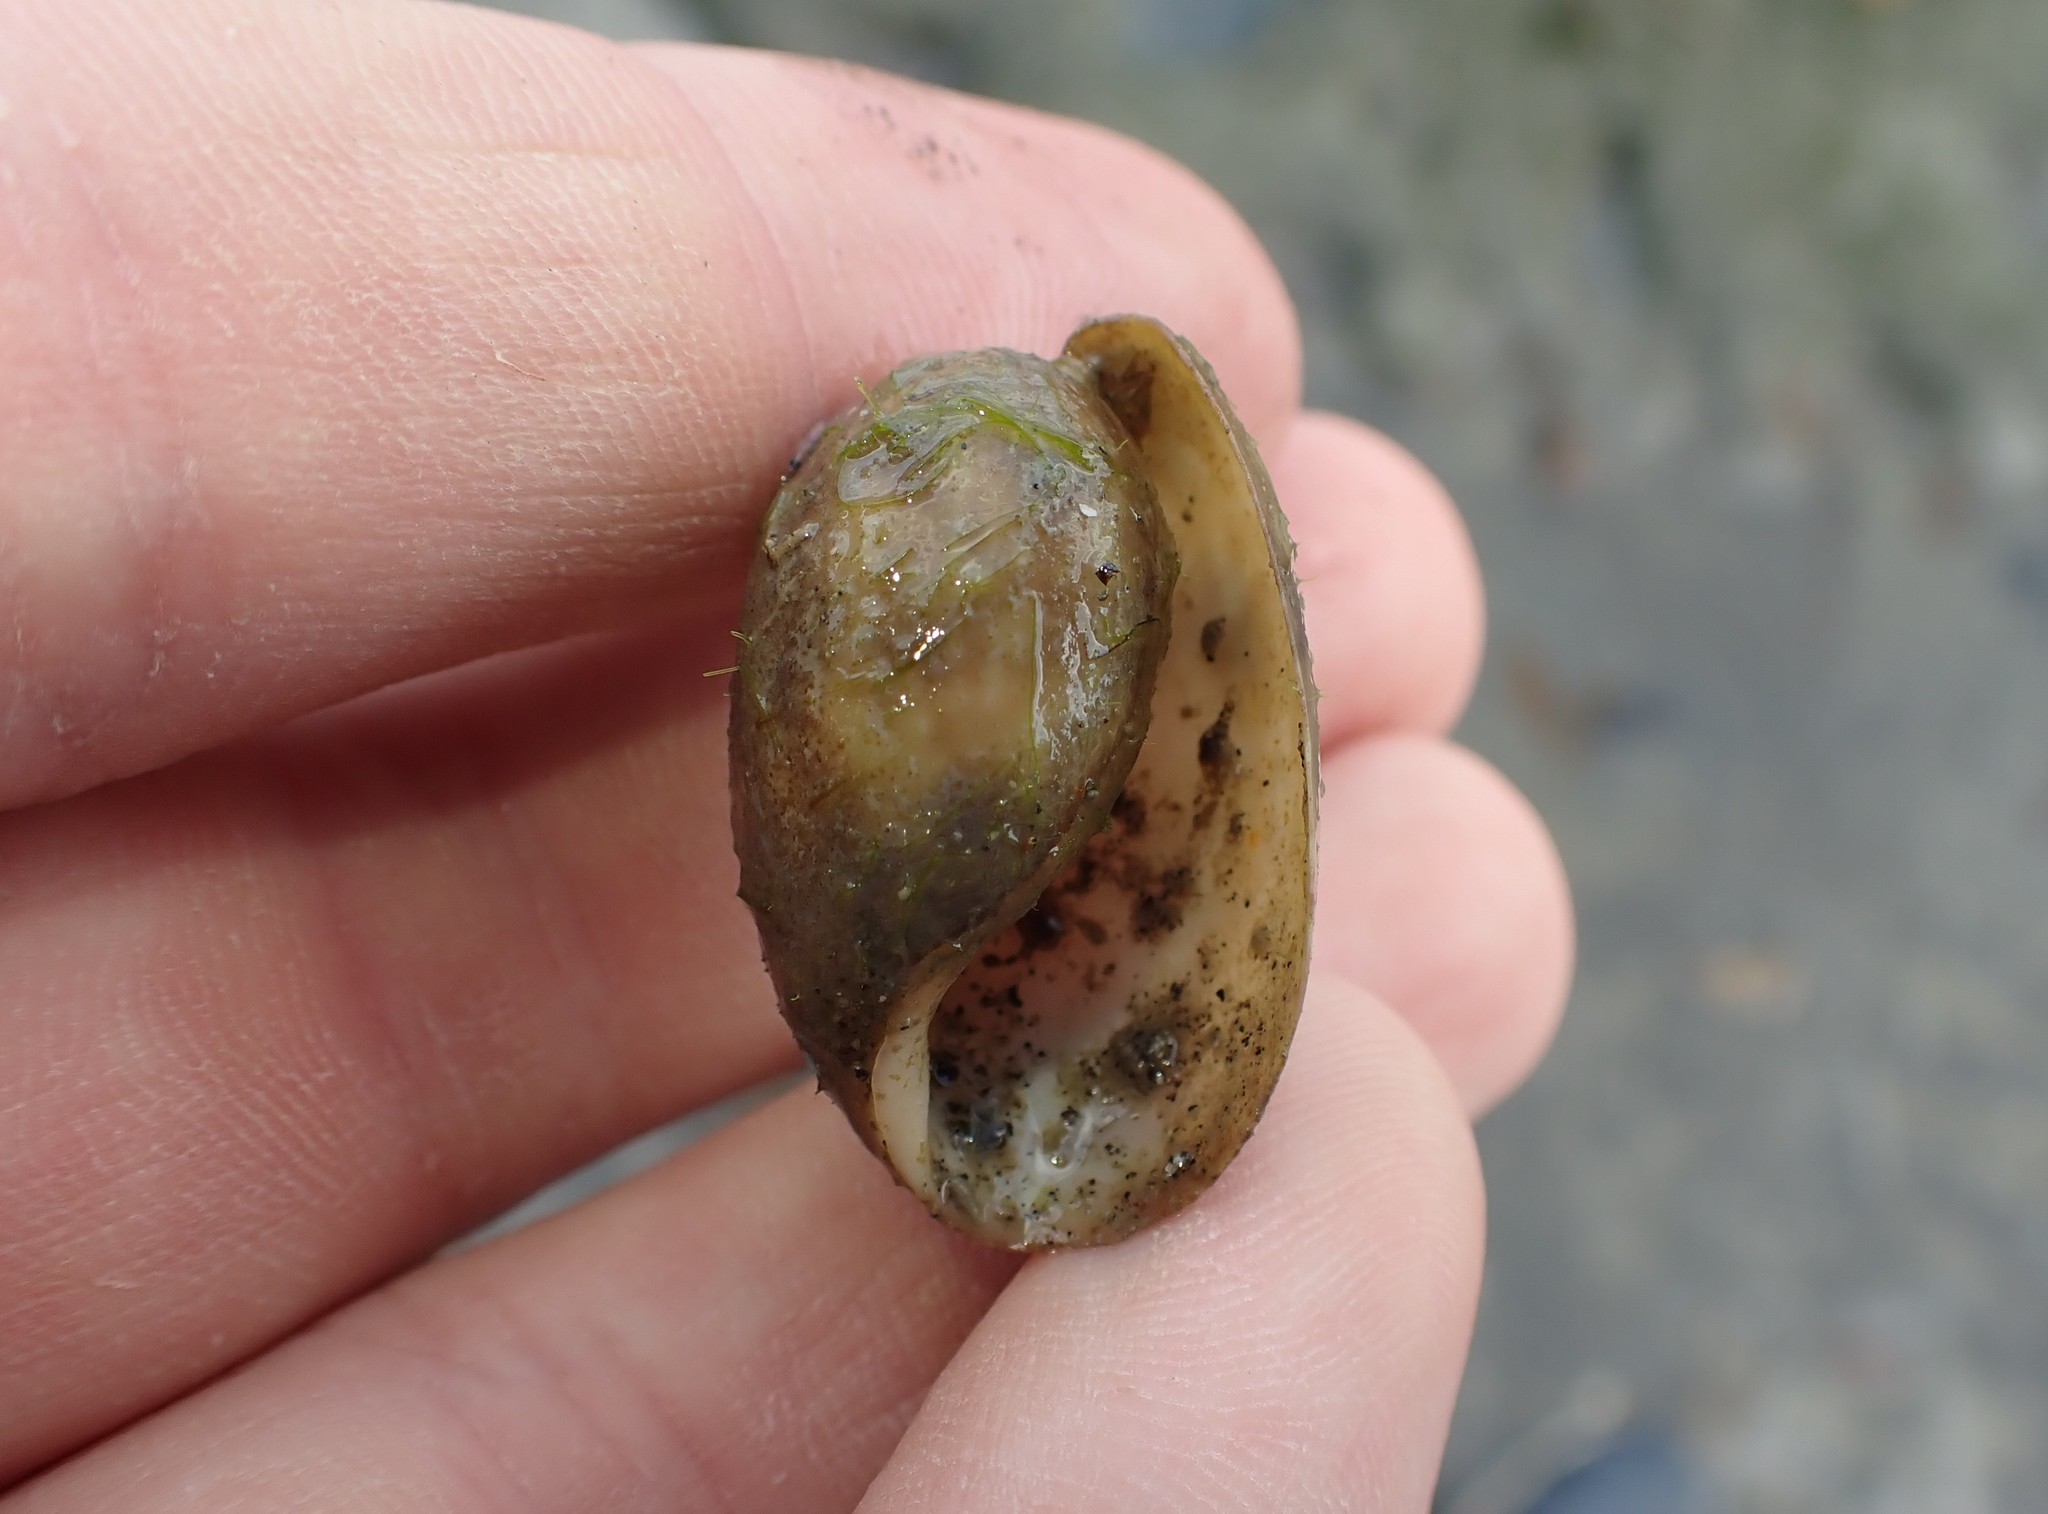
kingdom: Animalia
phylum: Mollusca
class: Gastropoda
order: Cephalaspidea
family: Bullidae
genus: Bulla
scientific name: Bulla quoyii
